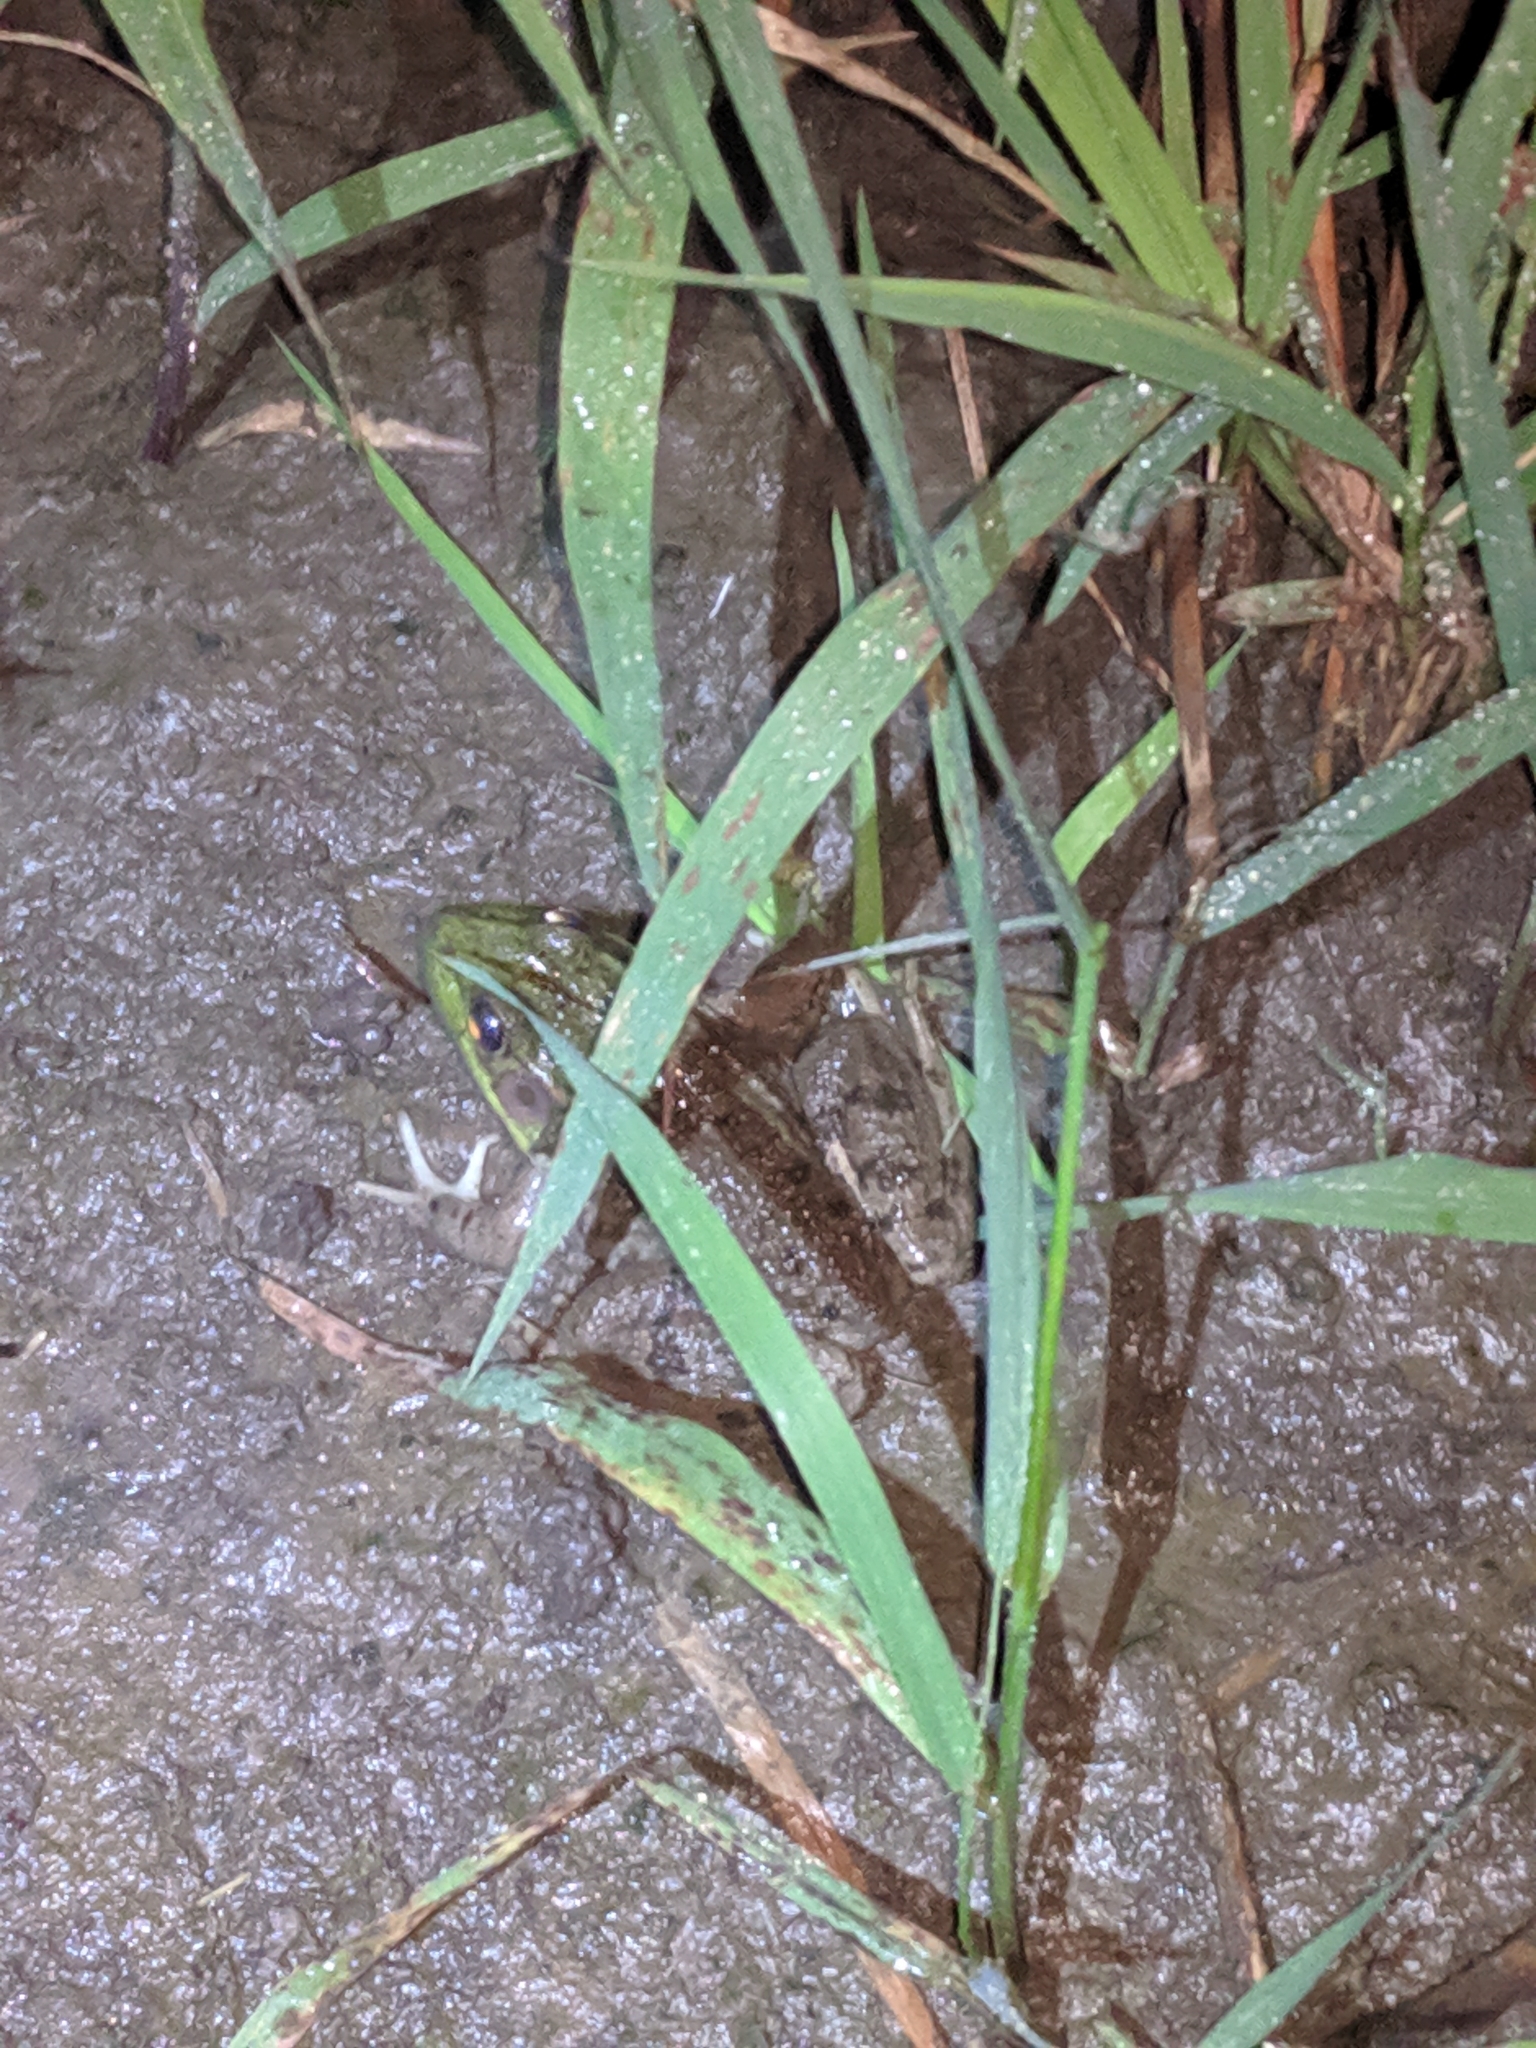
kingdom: Animalia
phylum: Chordata
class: Amphibia
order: Anura
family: Ranidae
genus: Lithobates
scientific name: Lithobates clamitans
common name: Green frog
